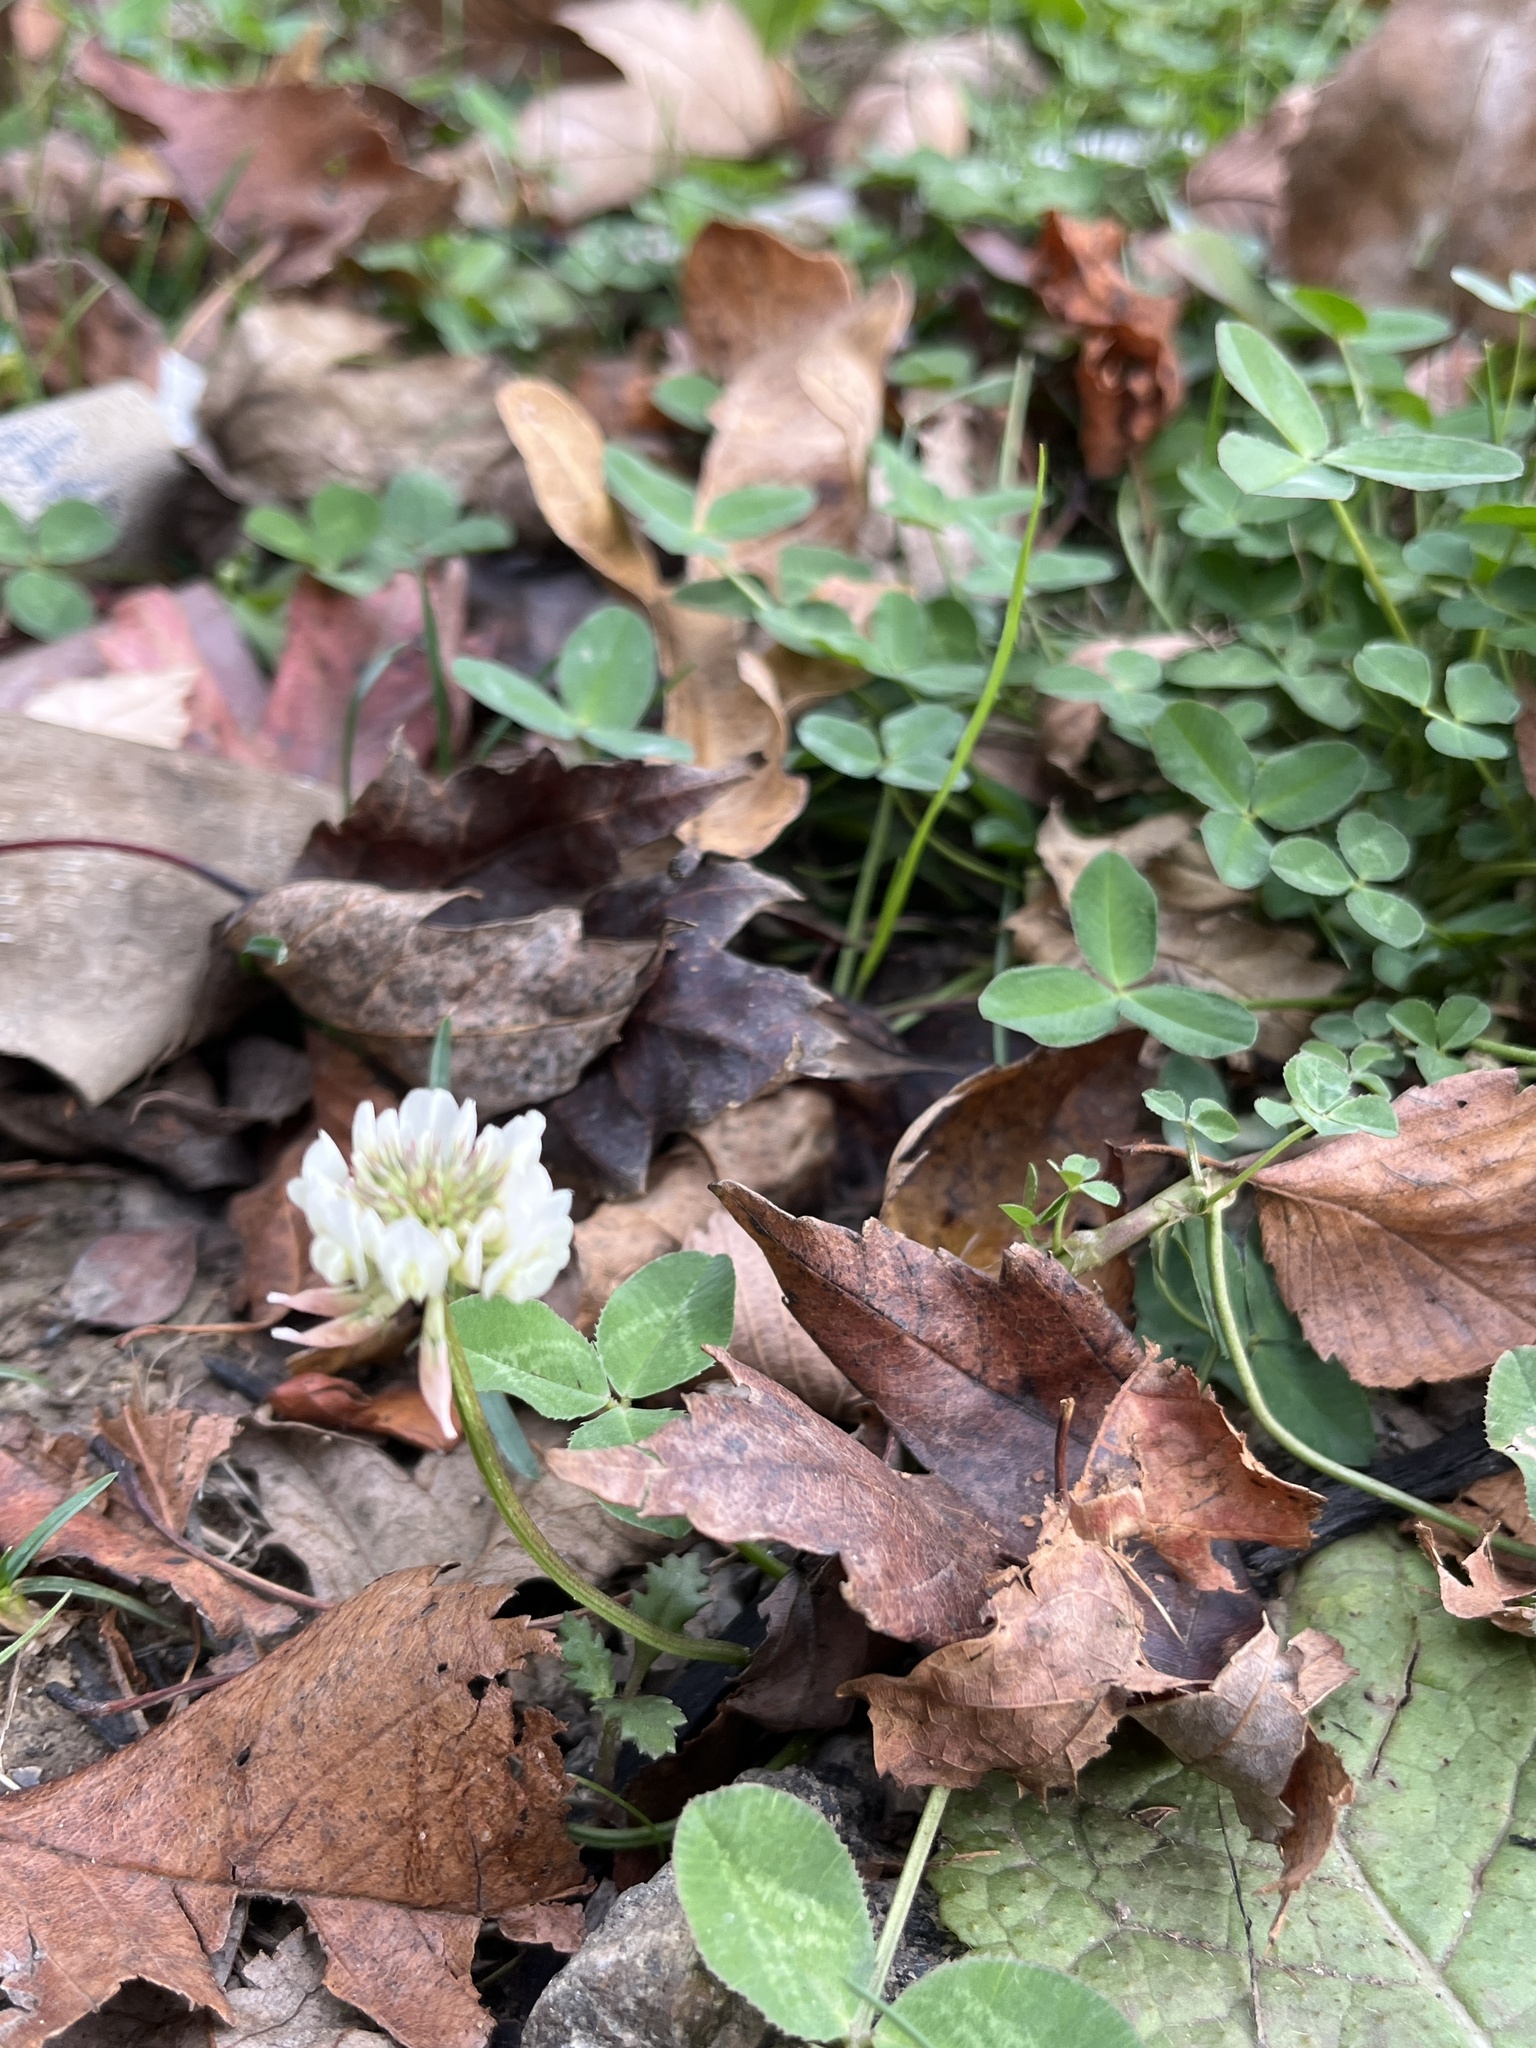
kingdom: Plantae
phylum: Tracheophyta
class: Magnoliopsida
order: Fabales
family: Fabaceae
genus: Trifolium
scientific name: Trifolium repens
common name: White clover
